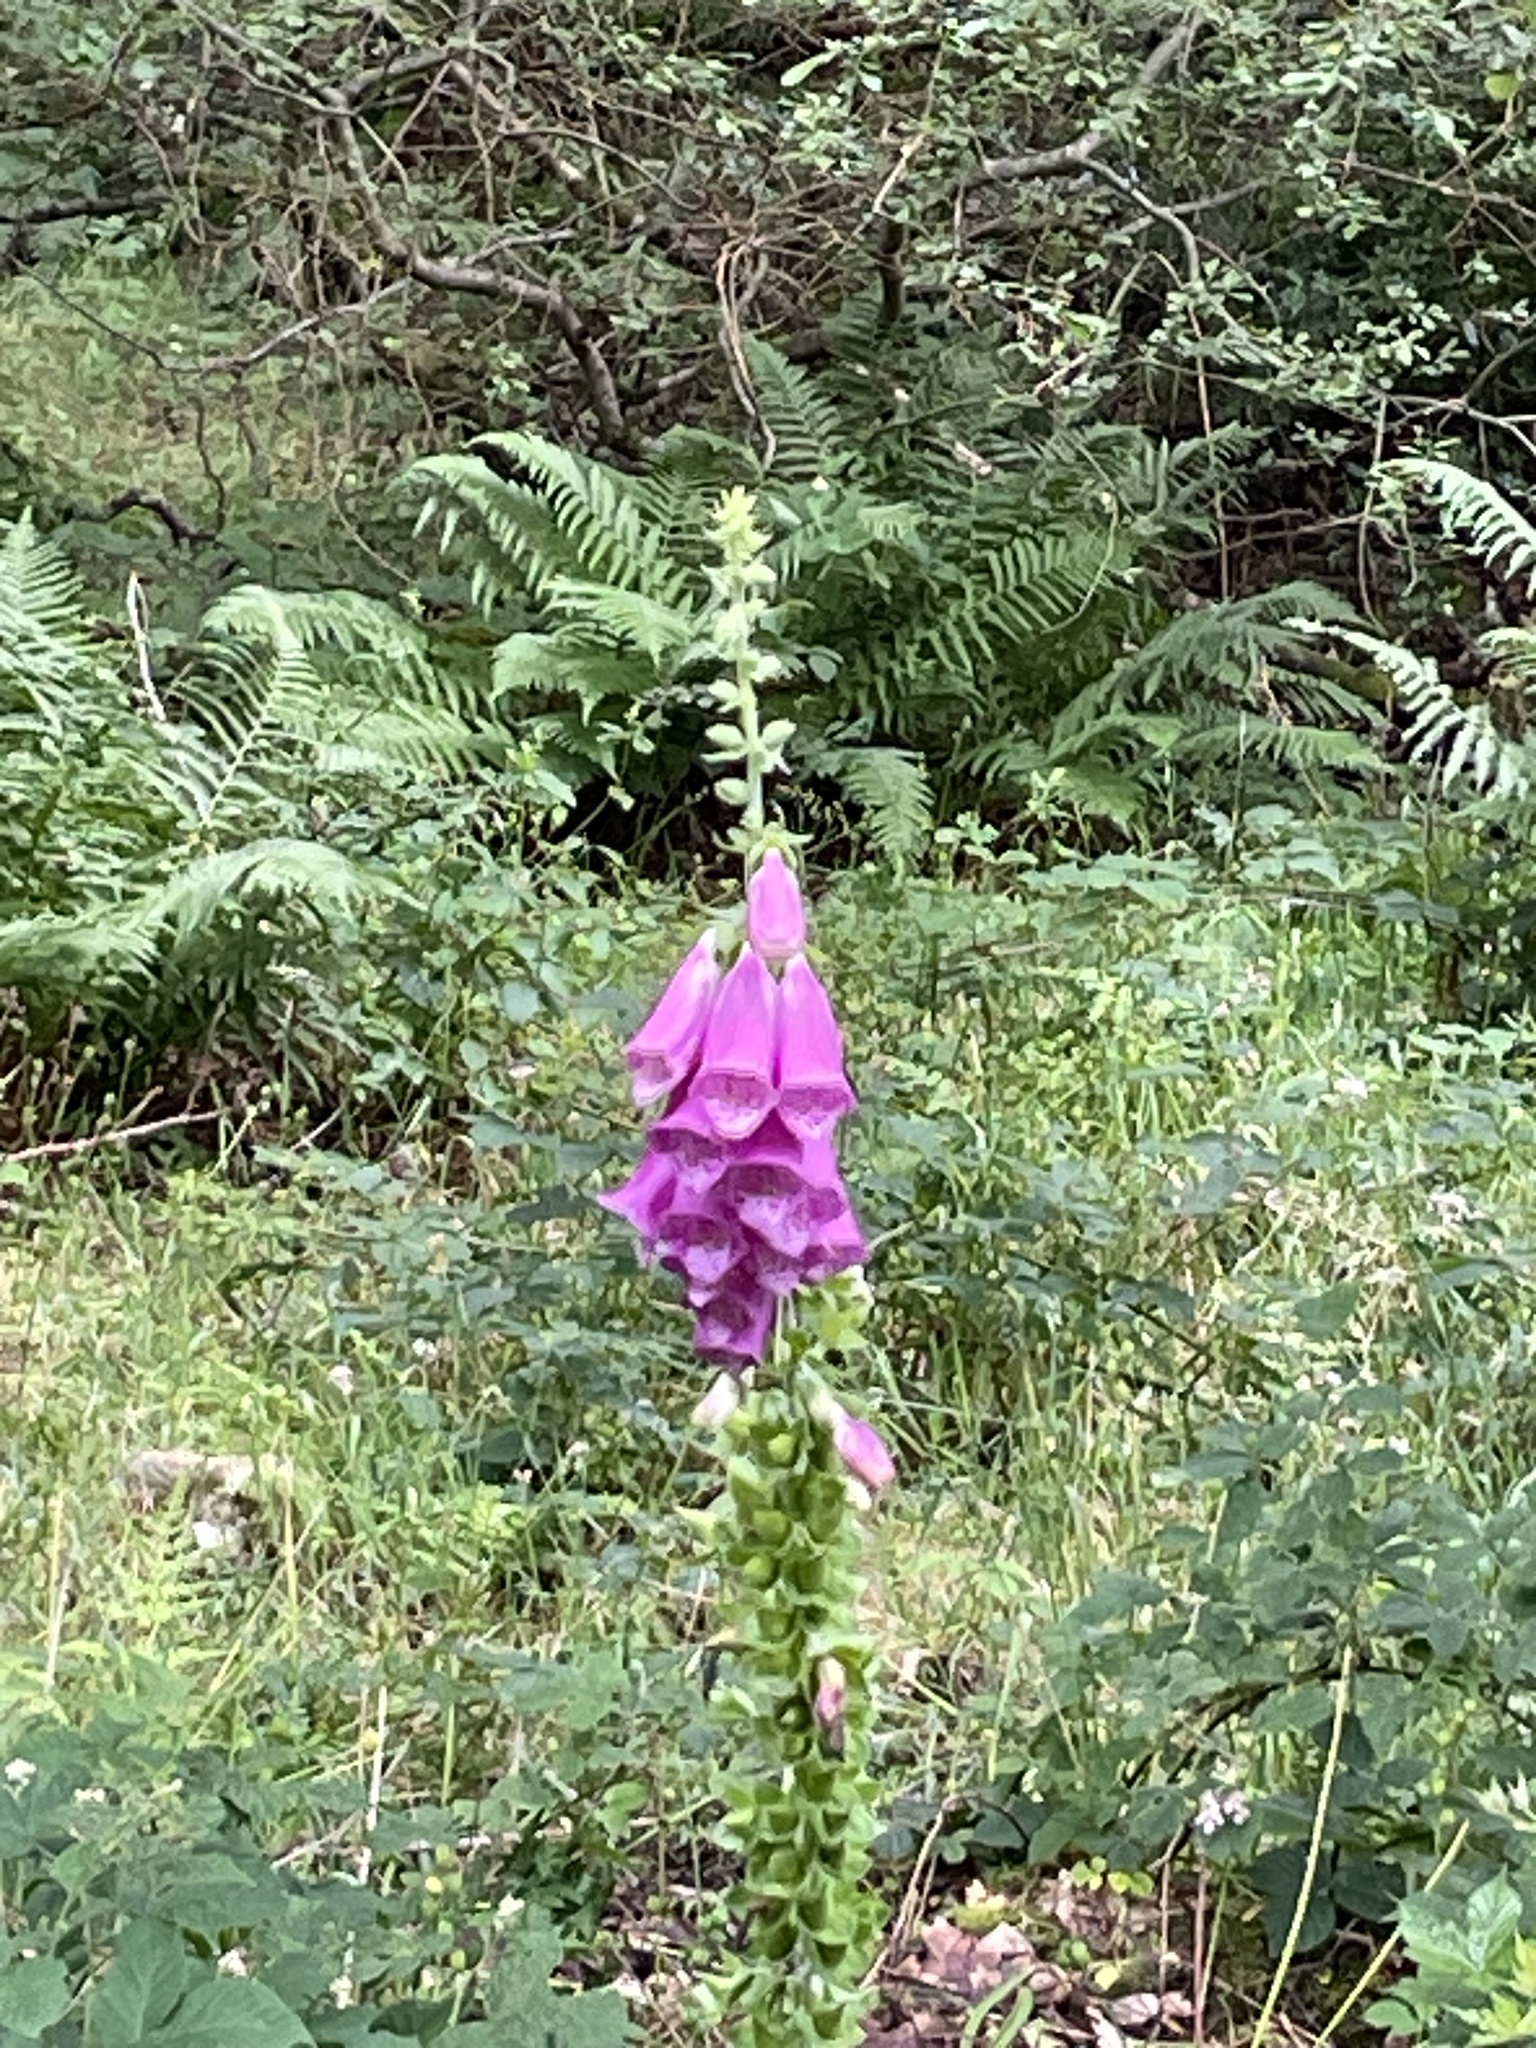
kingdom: Plantae
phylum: Tracheophyta
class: Magnoliopsida
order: Lamiales
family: Plantaginaceae
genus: Digitalis
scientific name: Digitalis purpurea
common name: Foxglove
